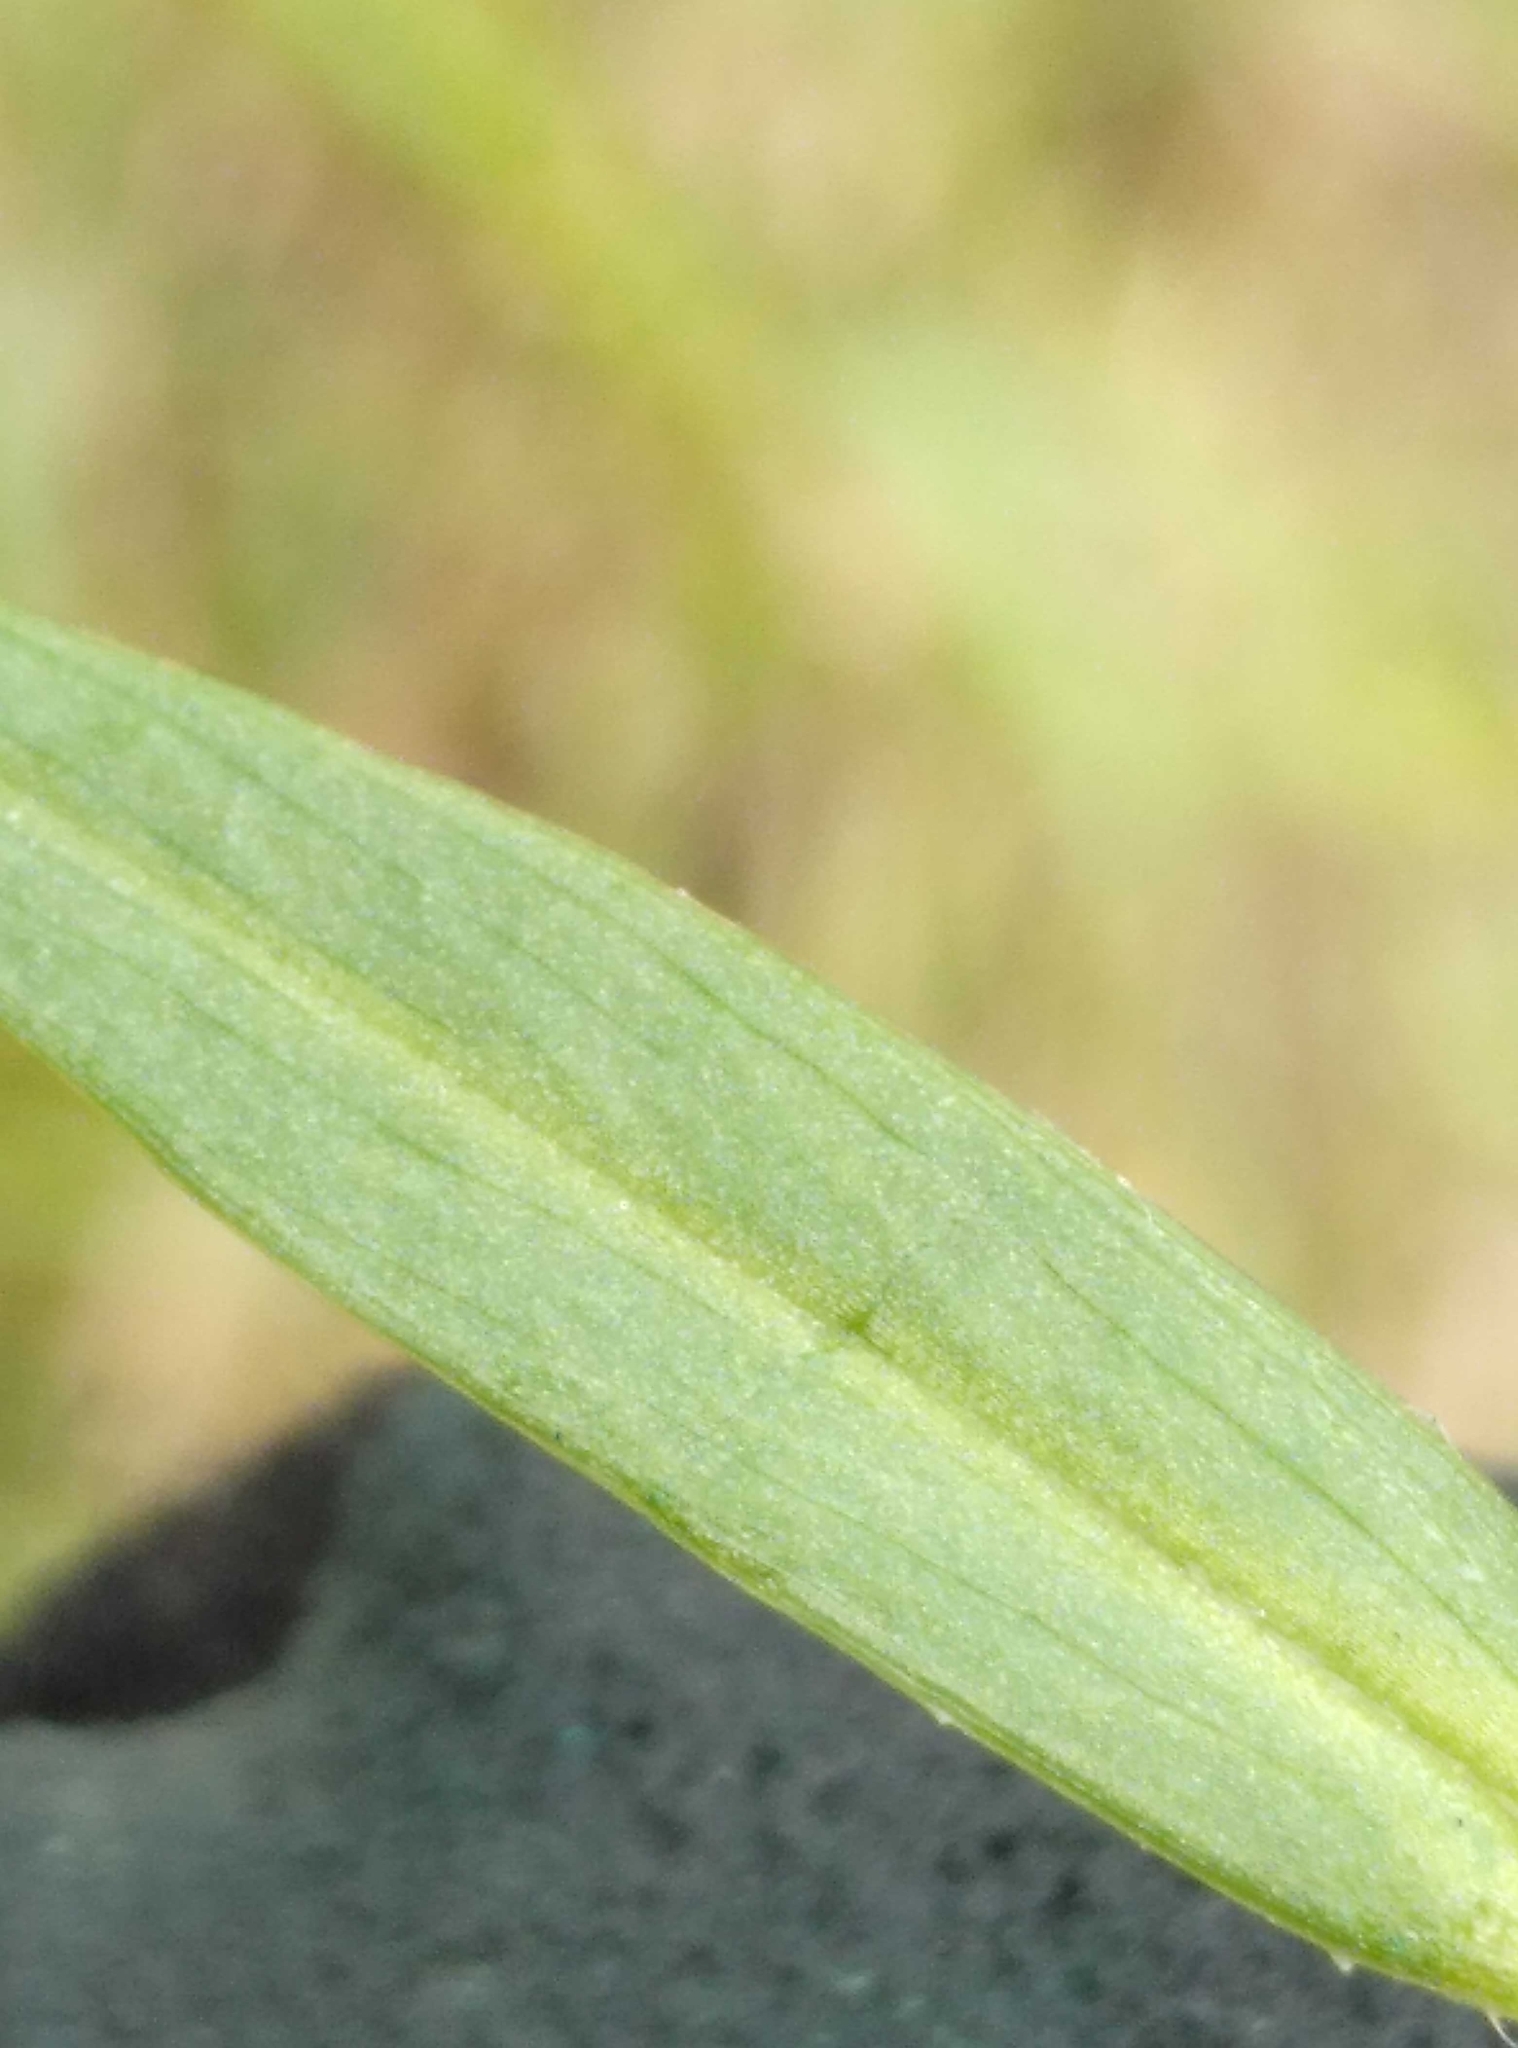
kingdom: Plantae
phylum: Tracheophyta
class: Magnoliopsida
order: Caryophyllales
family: Caryophyllaceae
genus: Stellaria
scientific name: Stellaria graminea
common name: Grass-like starwort
